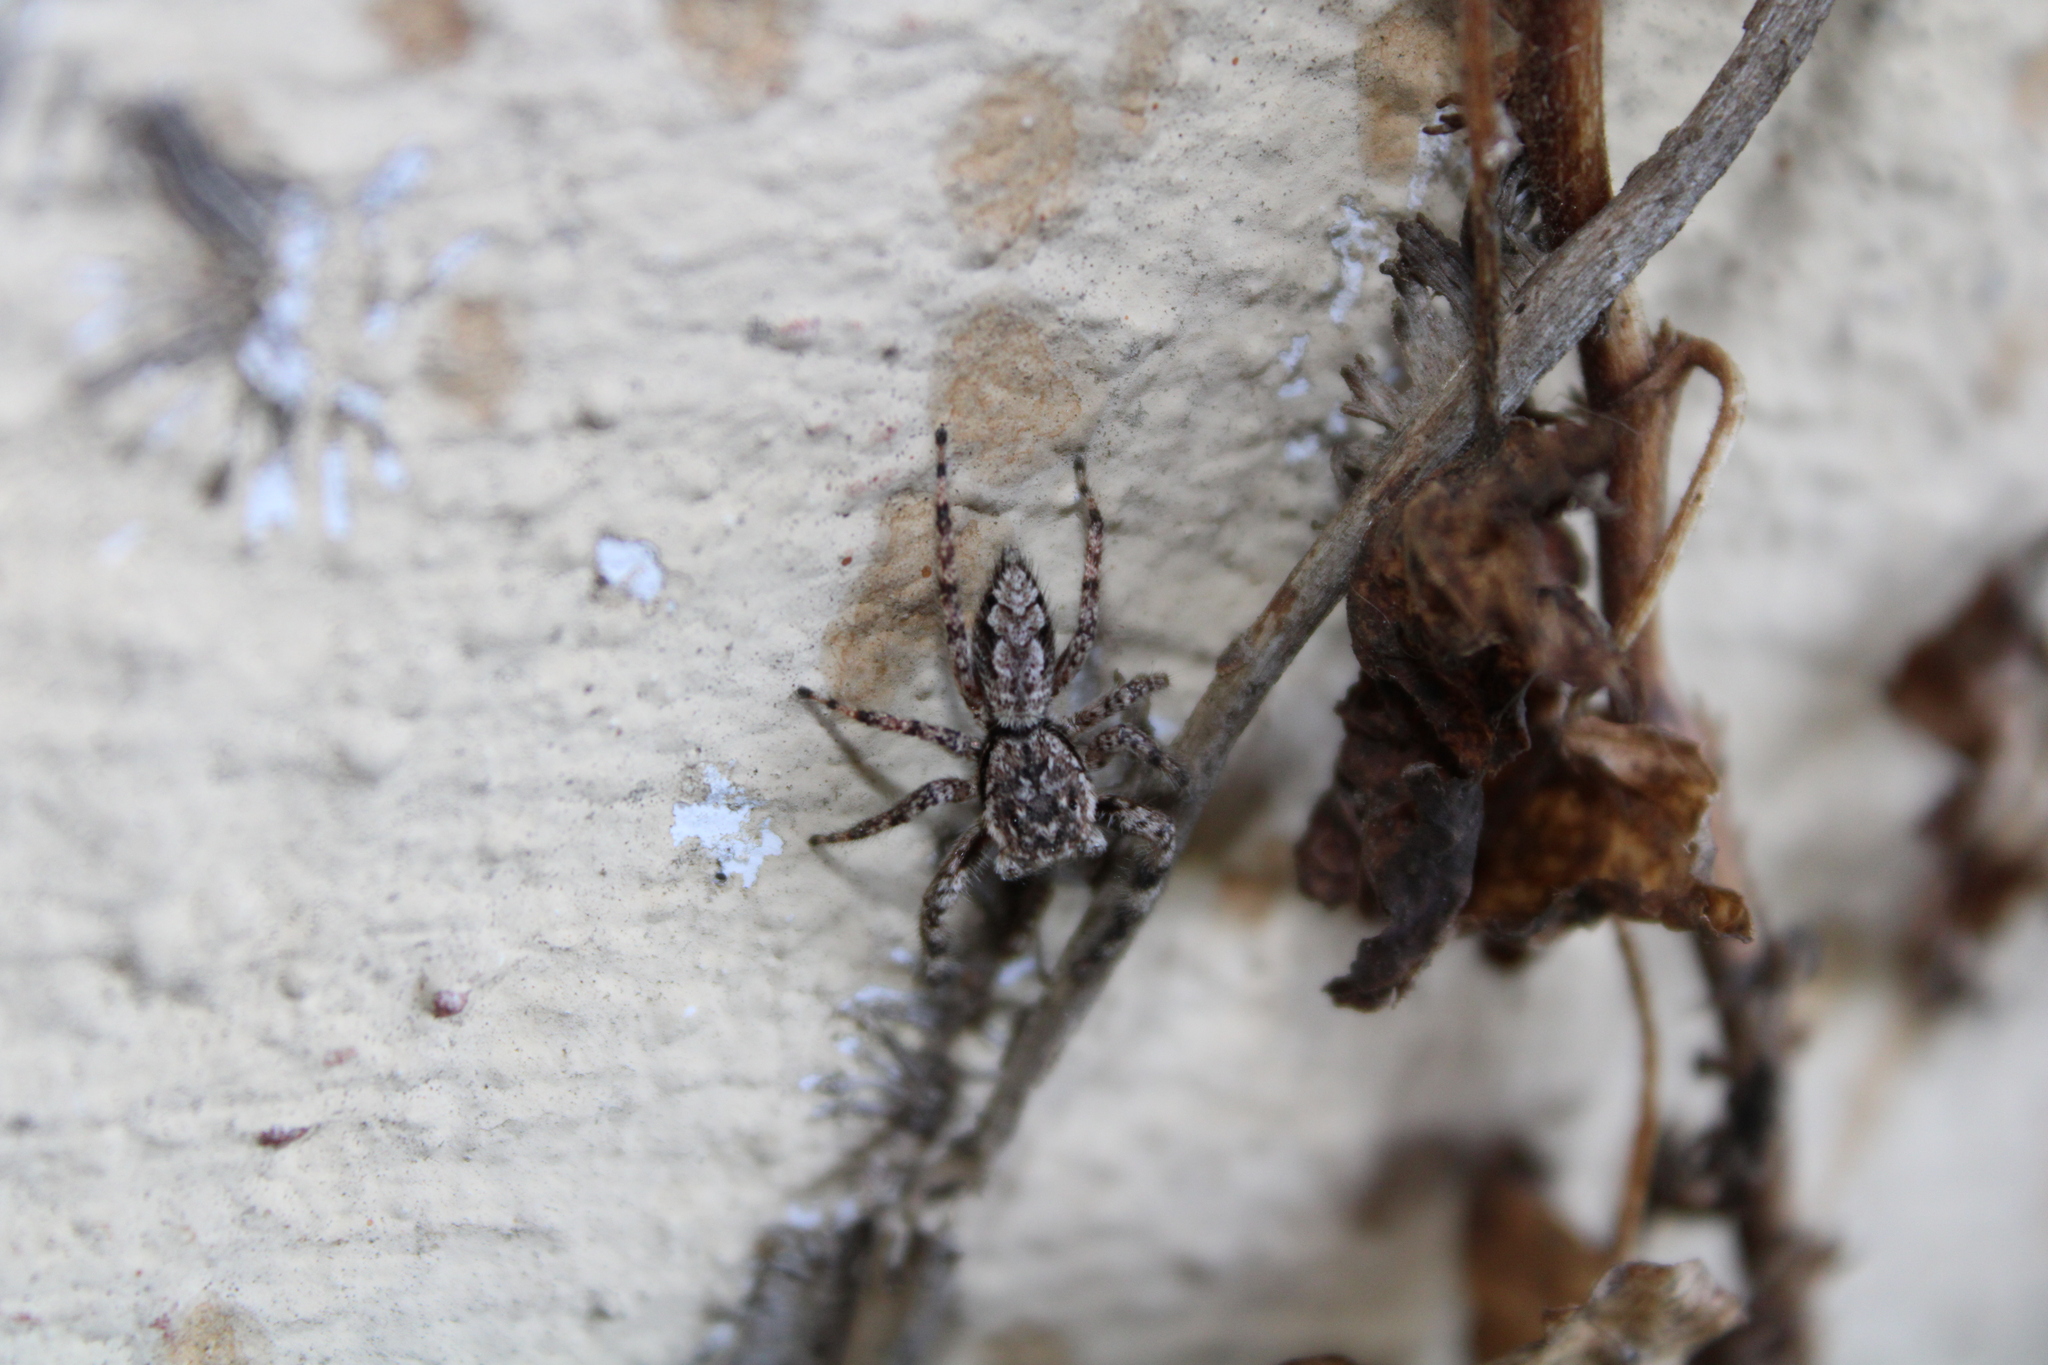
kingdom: Animalia
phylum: Arthropoda
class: Arachnida
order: Araneae
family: Salticidae
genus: Platycryptus
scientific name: Platycryptus undatus
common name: Tan jumping spider
